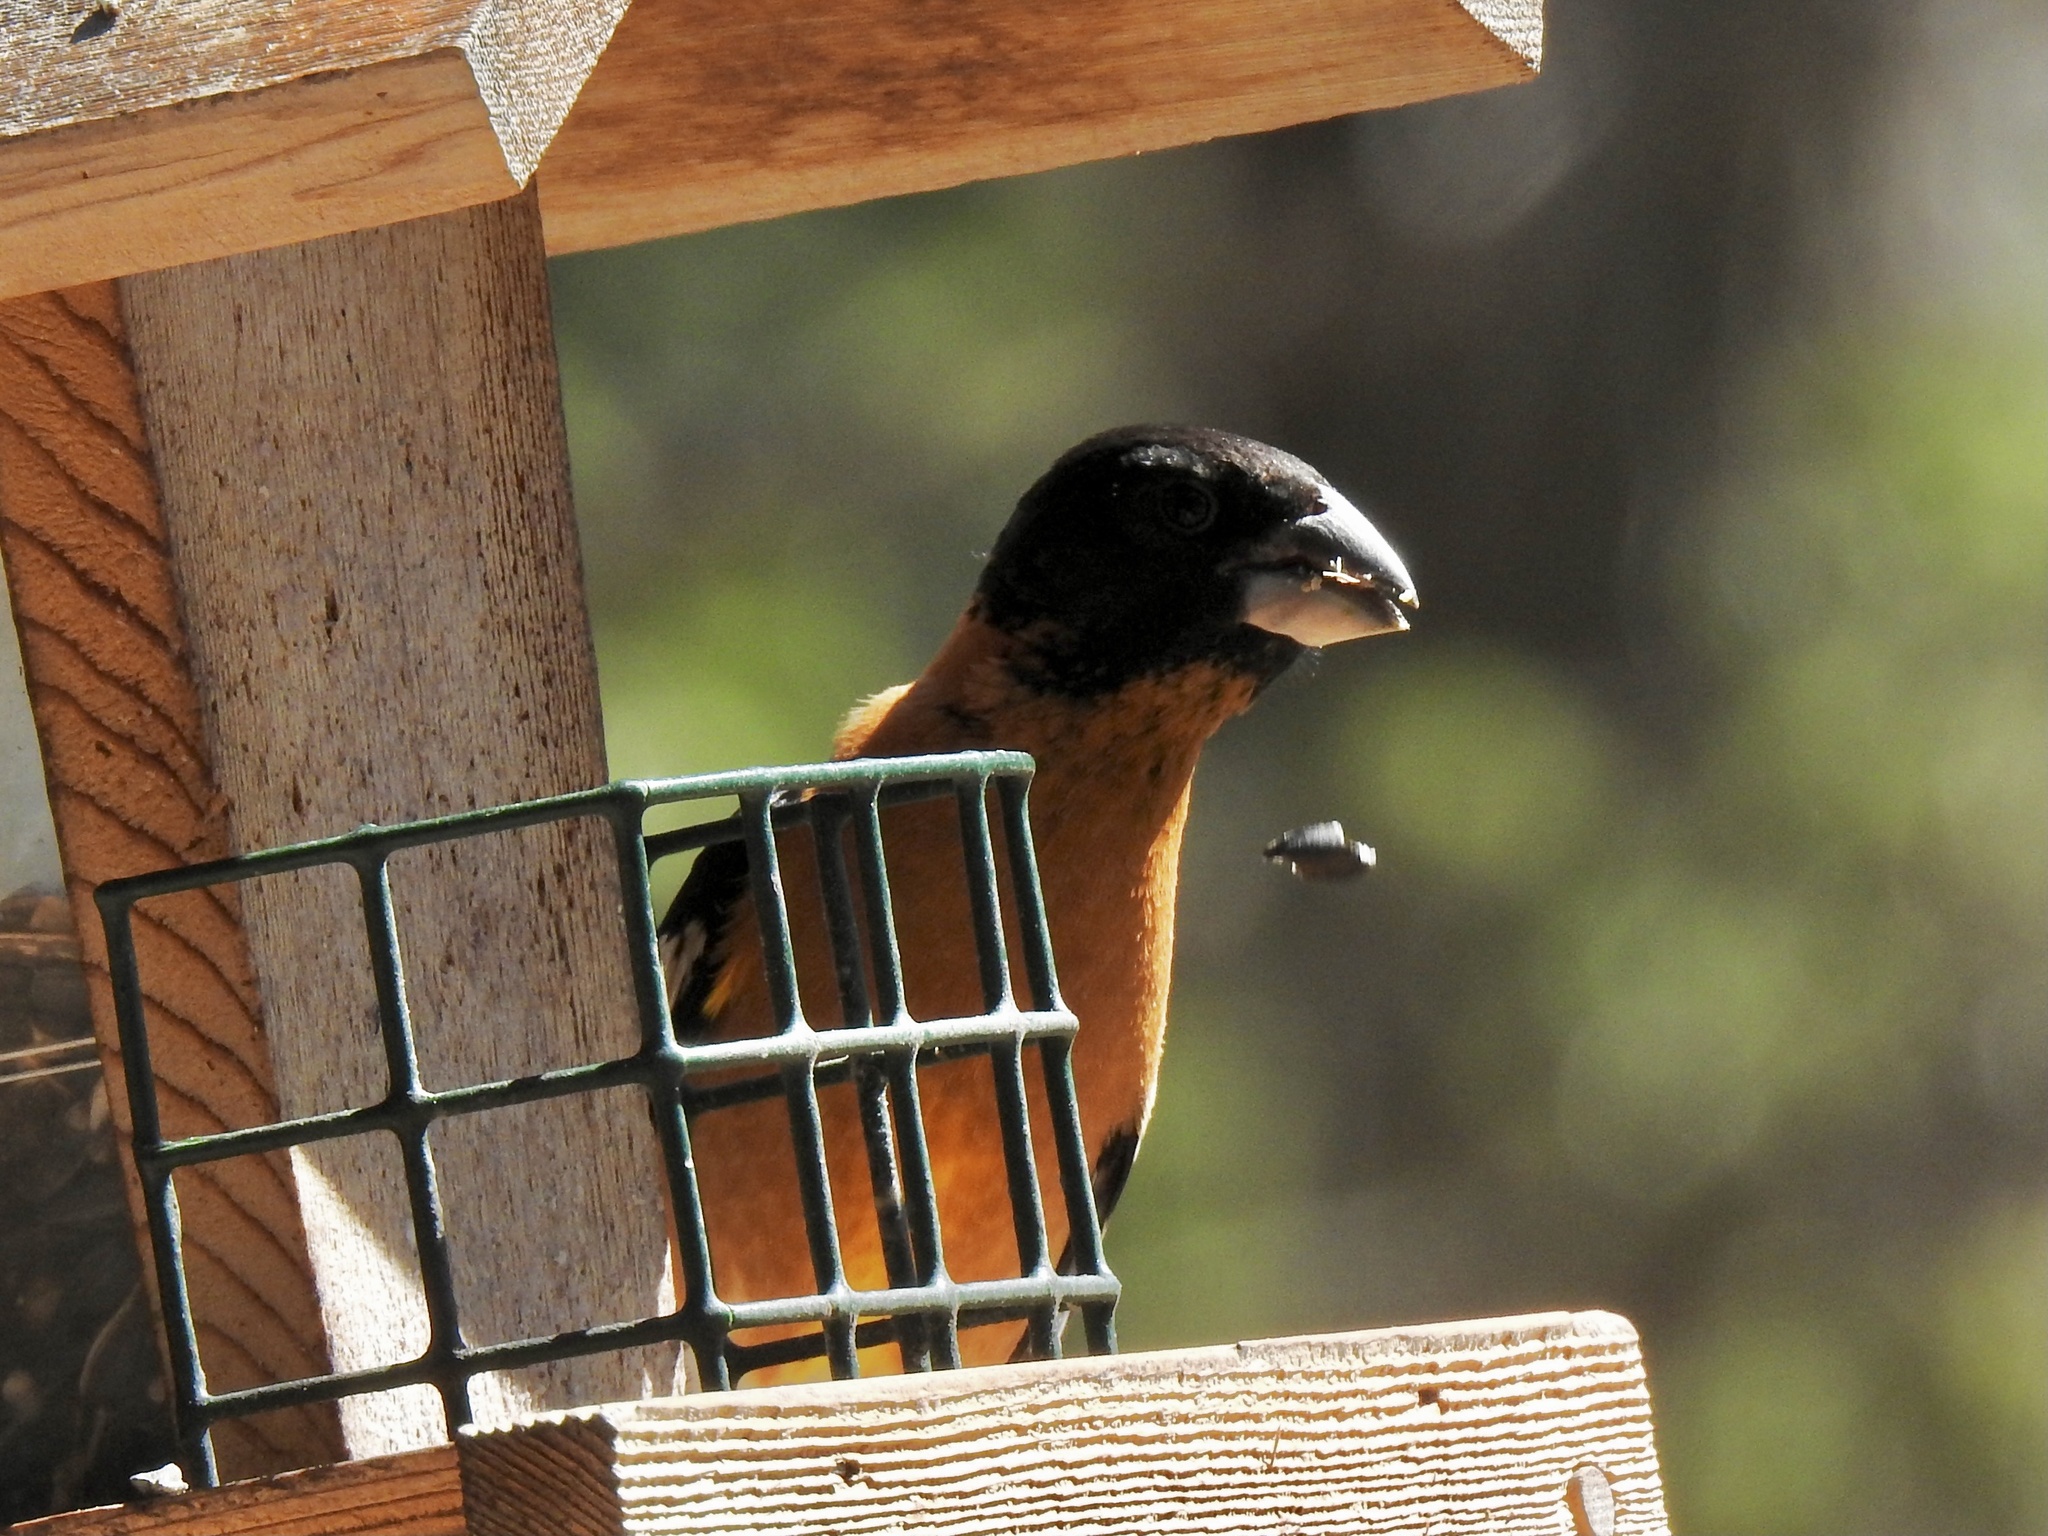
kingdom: Animalia
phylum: Chordata
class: Aves
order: Passeriformes
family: Cardinalidae
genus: Pheucticus
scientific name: Pheucticus melanocephalus
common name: Black-headed grosbeak
